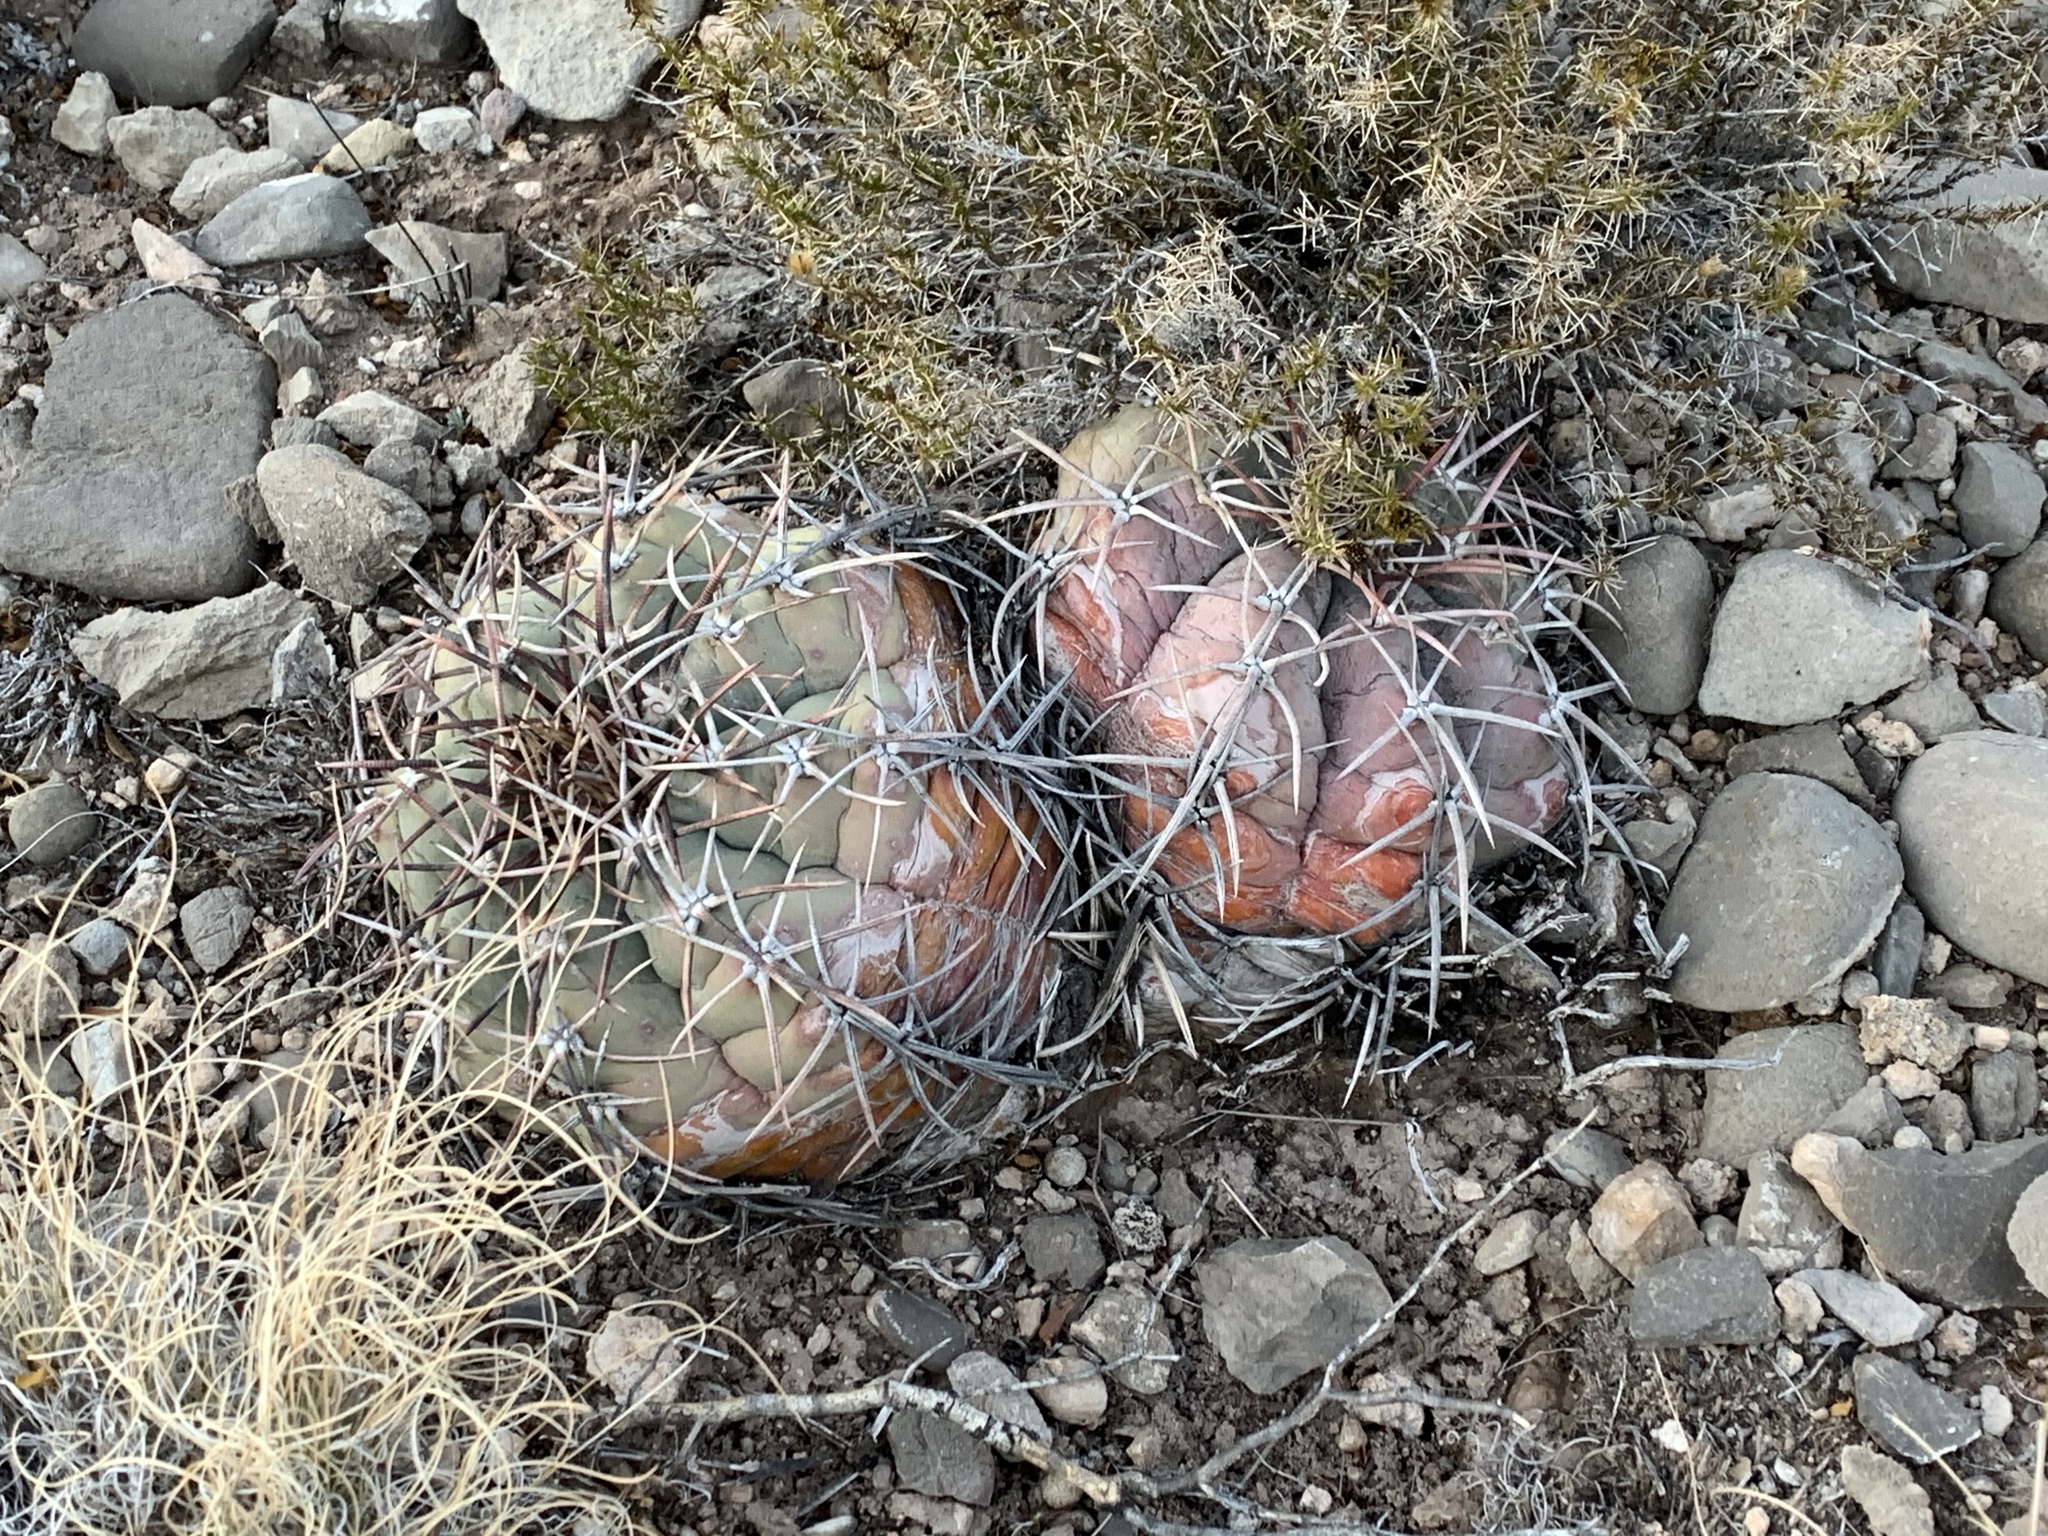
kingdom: Plantae
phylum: Tracheophyta
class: Magnoliopsida
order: Caryophyllales
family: Cactaceae
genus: Echinocactus
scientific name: Echinocactus horizonthalonius
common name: Devilshead
